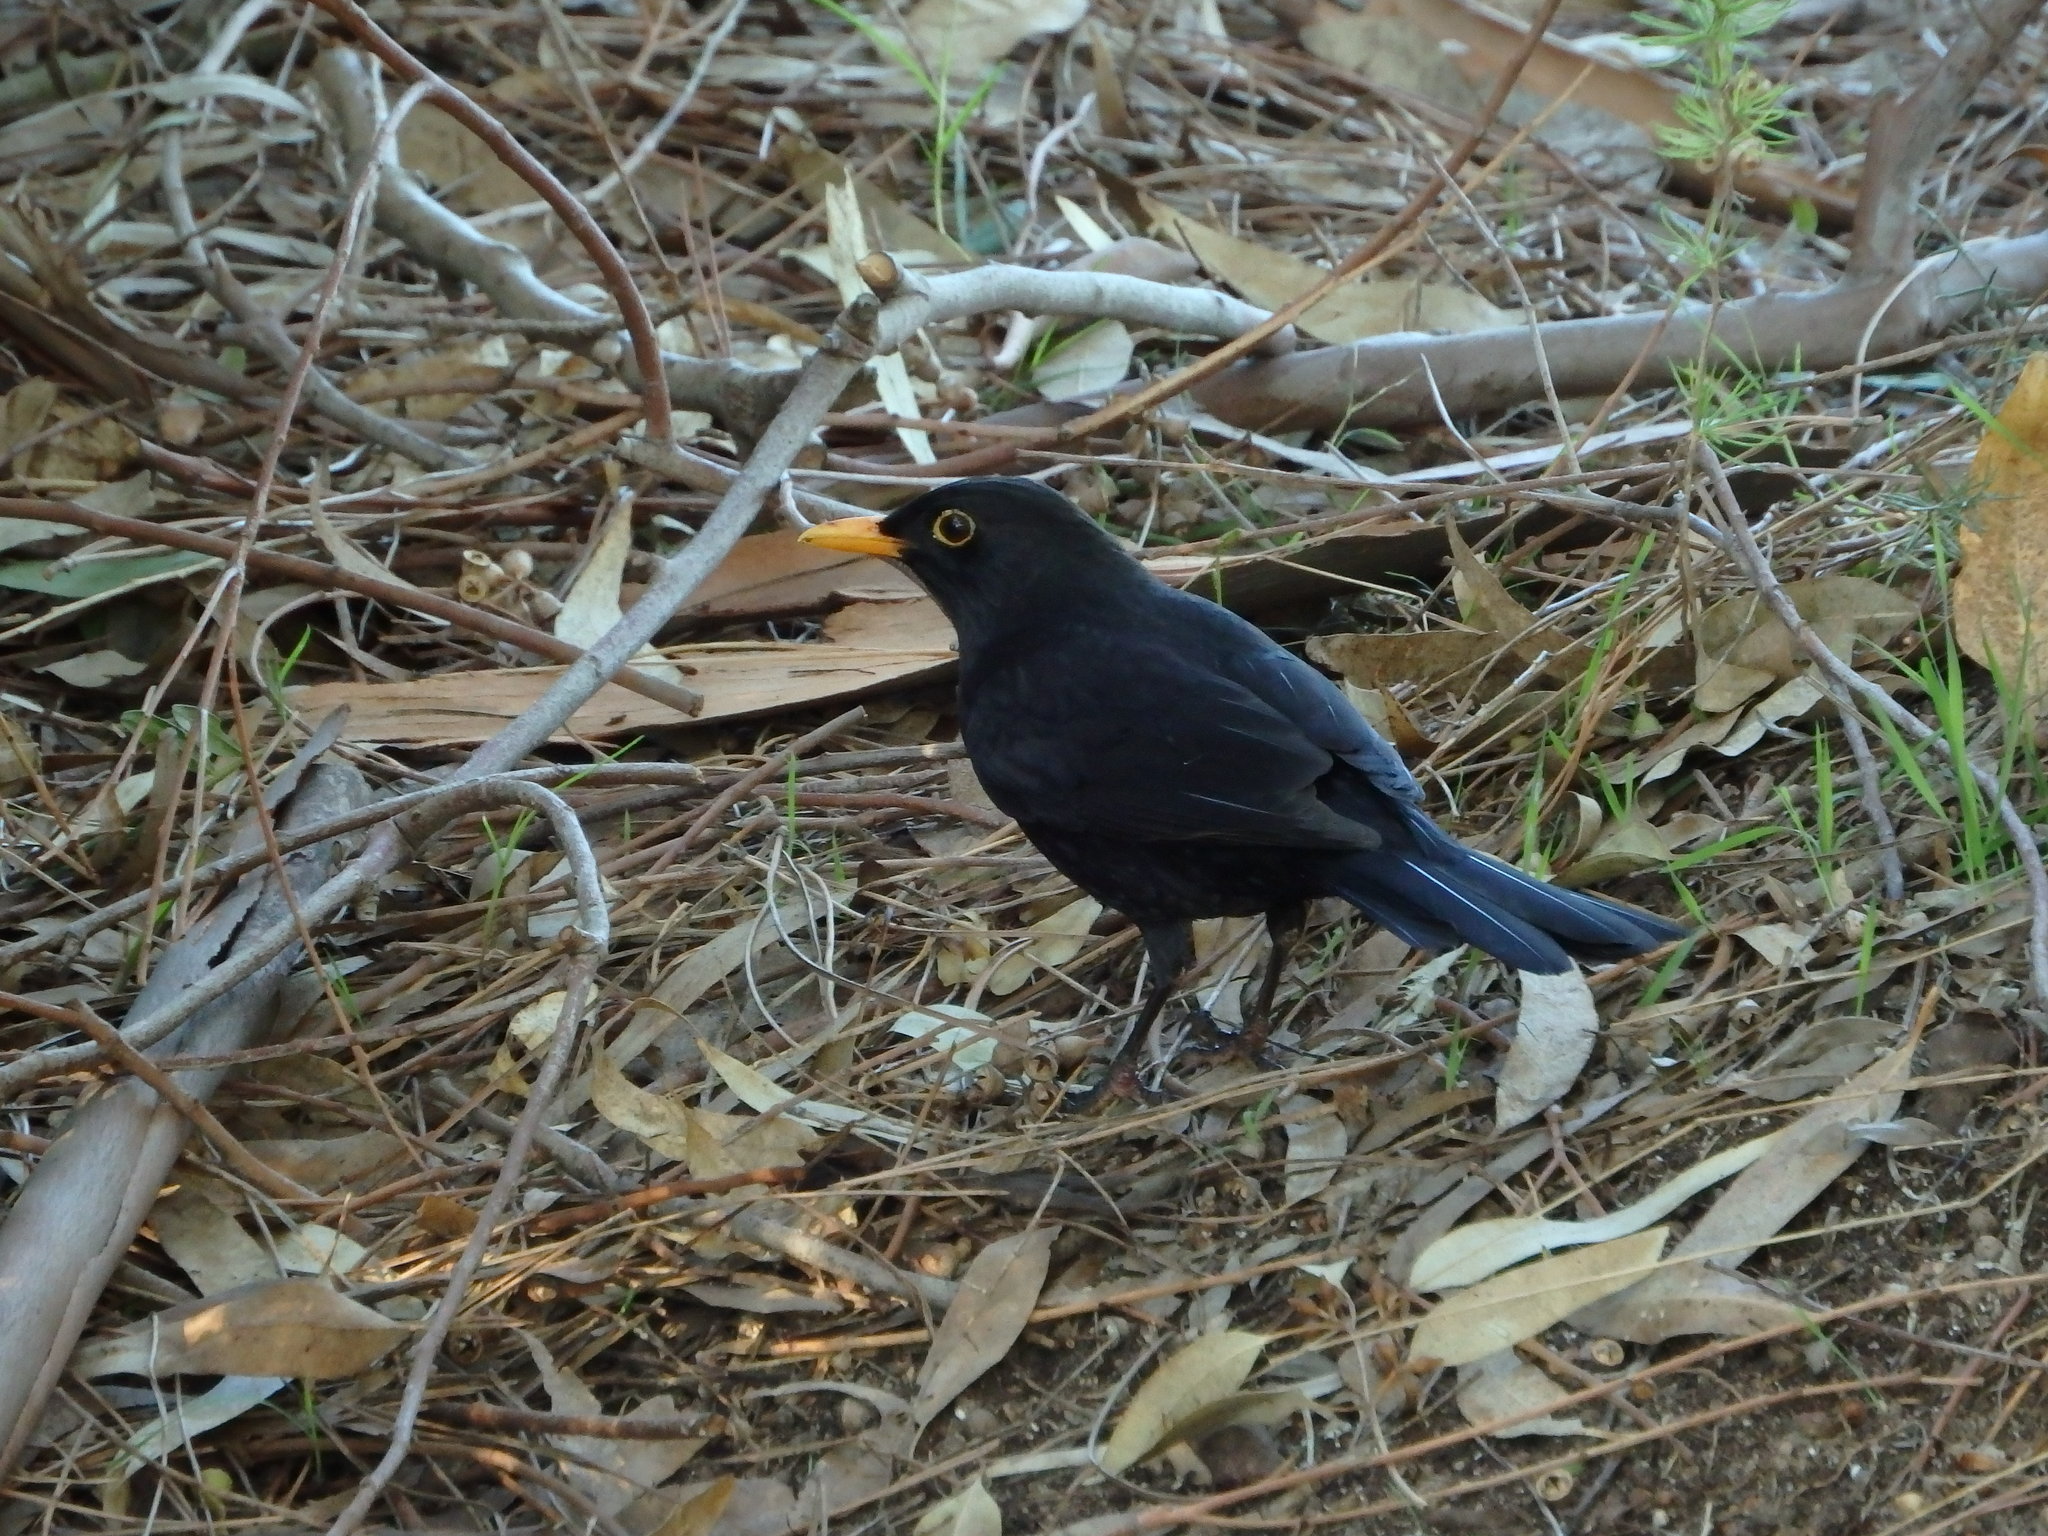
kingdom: Animalia
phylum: Chordata
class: Aves
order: Passeriformes
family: Turdidae
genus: Turdus
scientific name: Turdus merula
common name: Common blackbird
